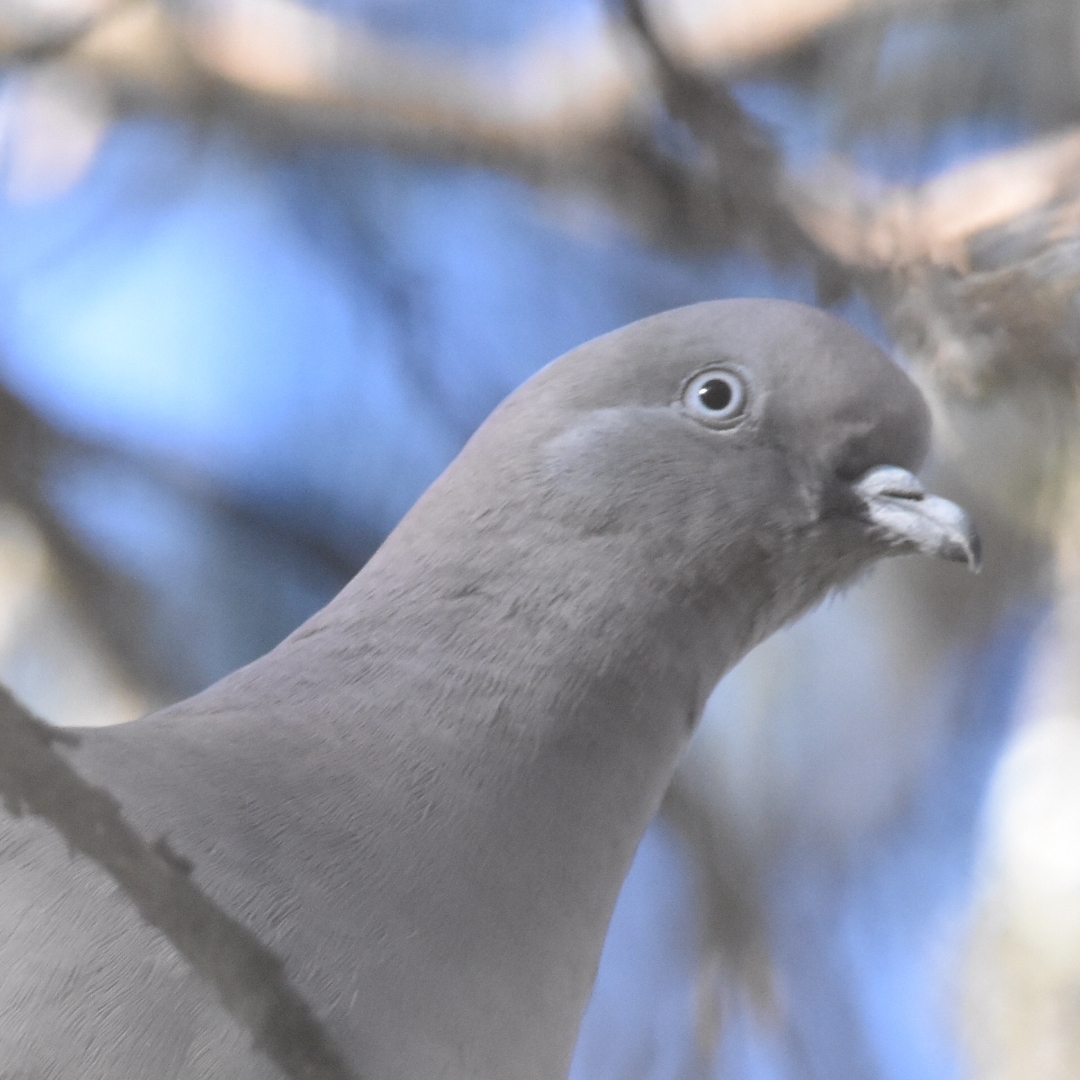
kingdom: Animalia
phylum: Chordata
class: Aves
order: Columbiformes
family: Columbidae
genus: Patagioenas
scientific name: Patagioenas maculosa
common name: Spot-winged pigeon
